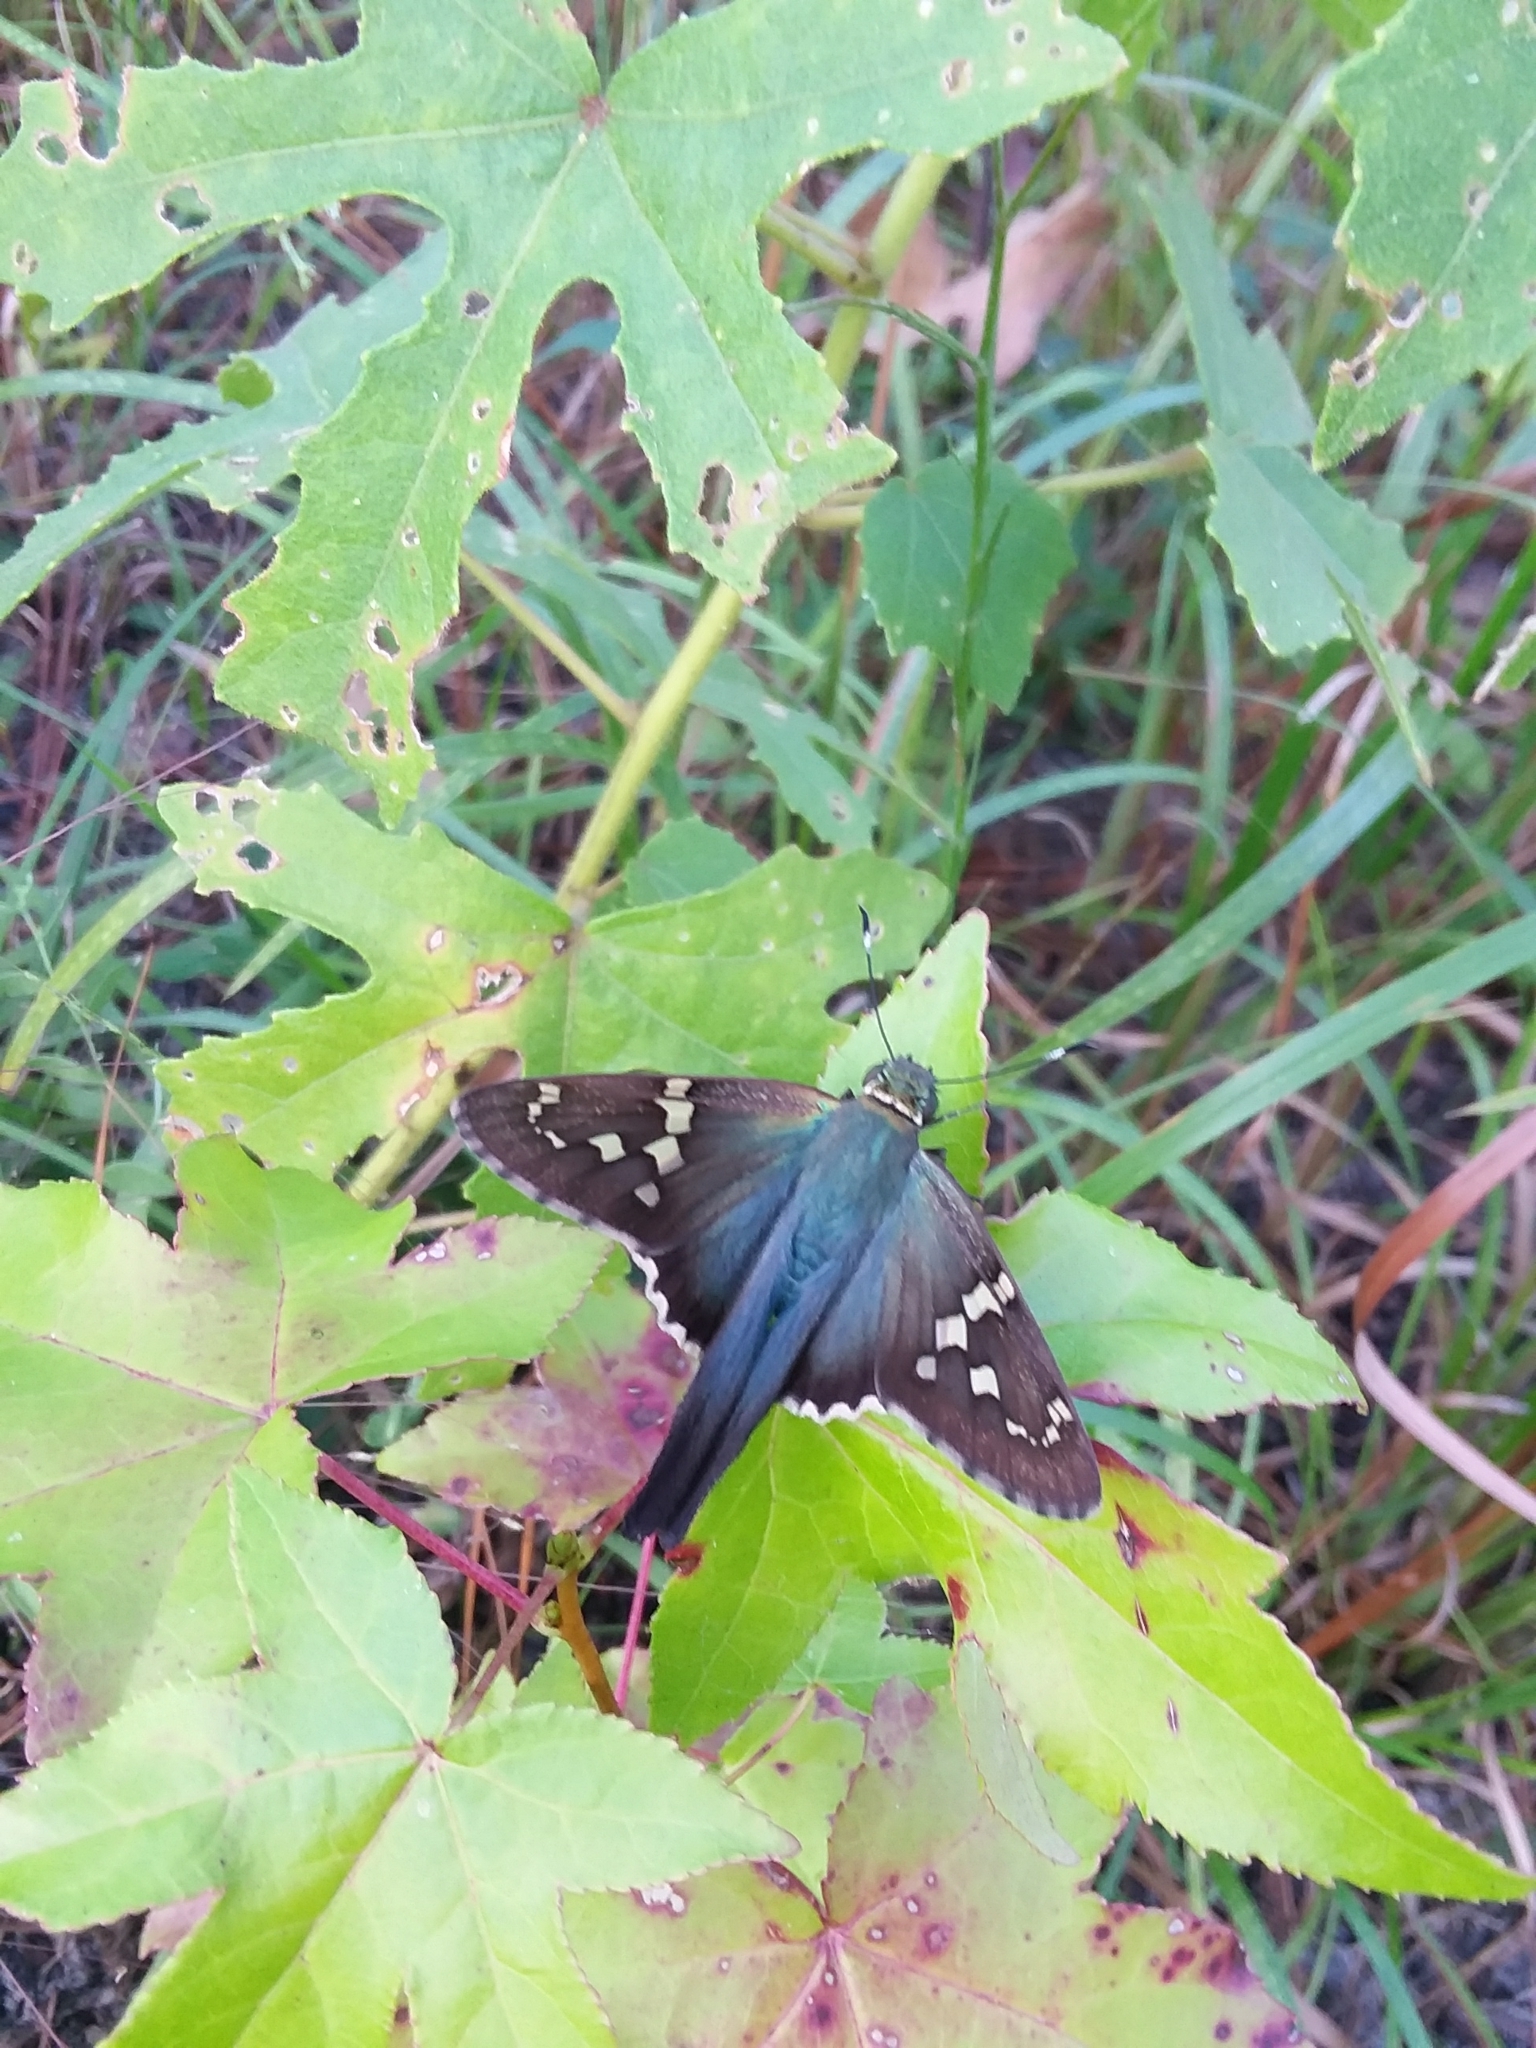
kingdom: Animalia
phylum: Arthropoda
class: Insecta
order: Lepidoptera
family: Hesperiidae
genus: Urbanus
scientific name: Urbanus proteus
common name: Long-tailed skipper
